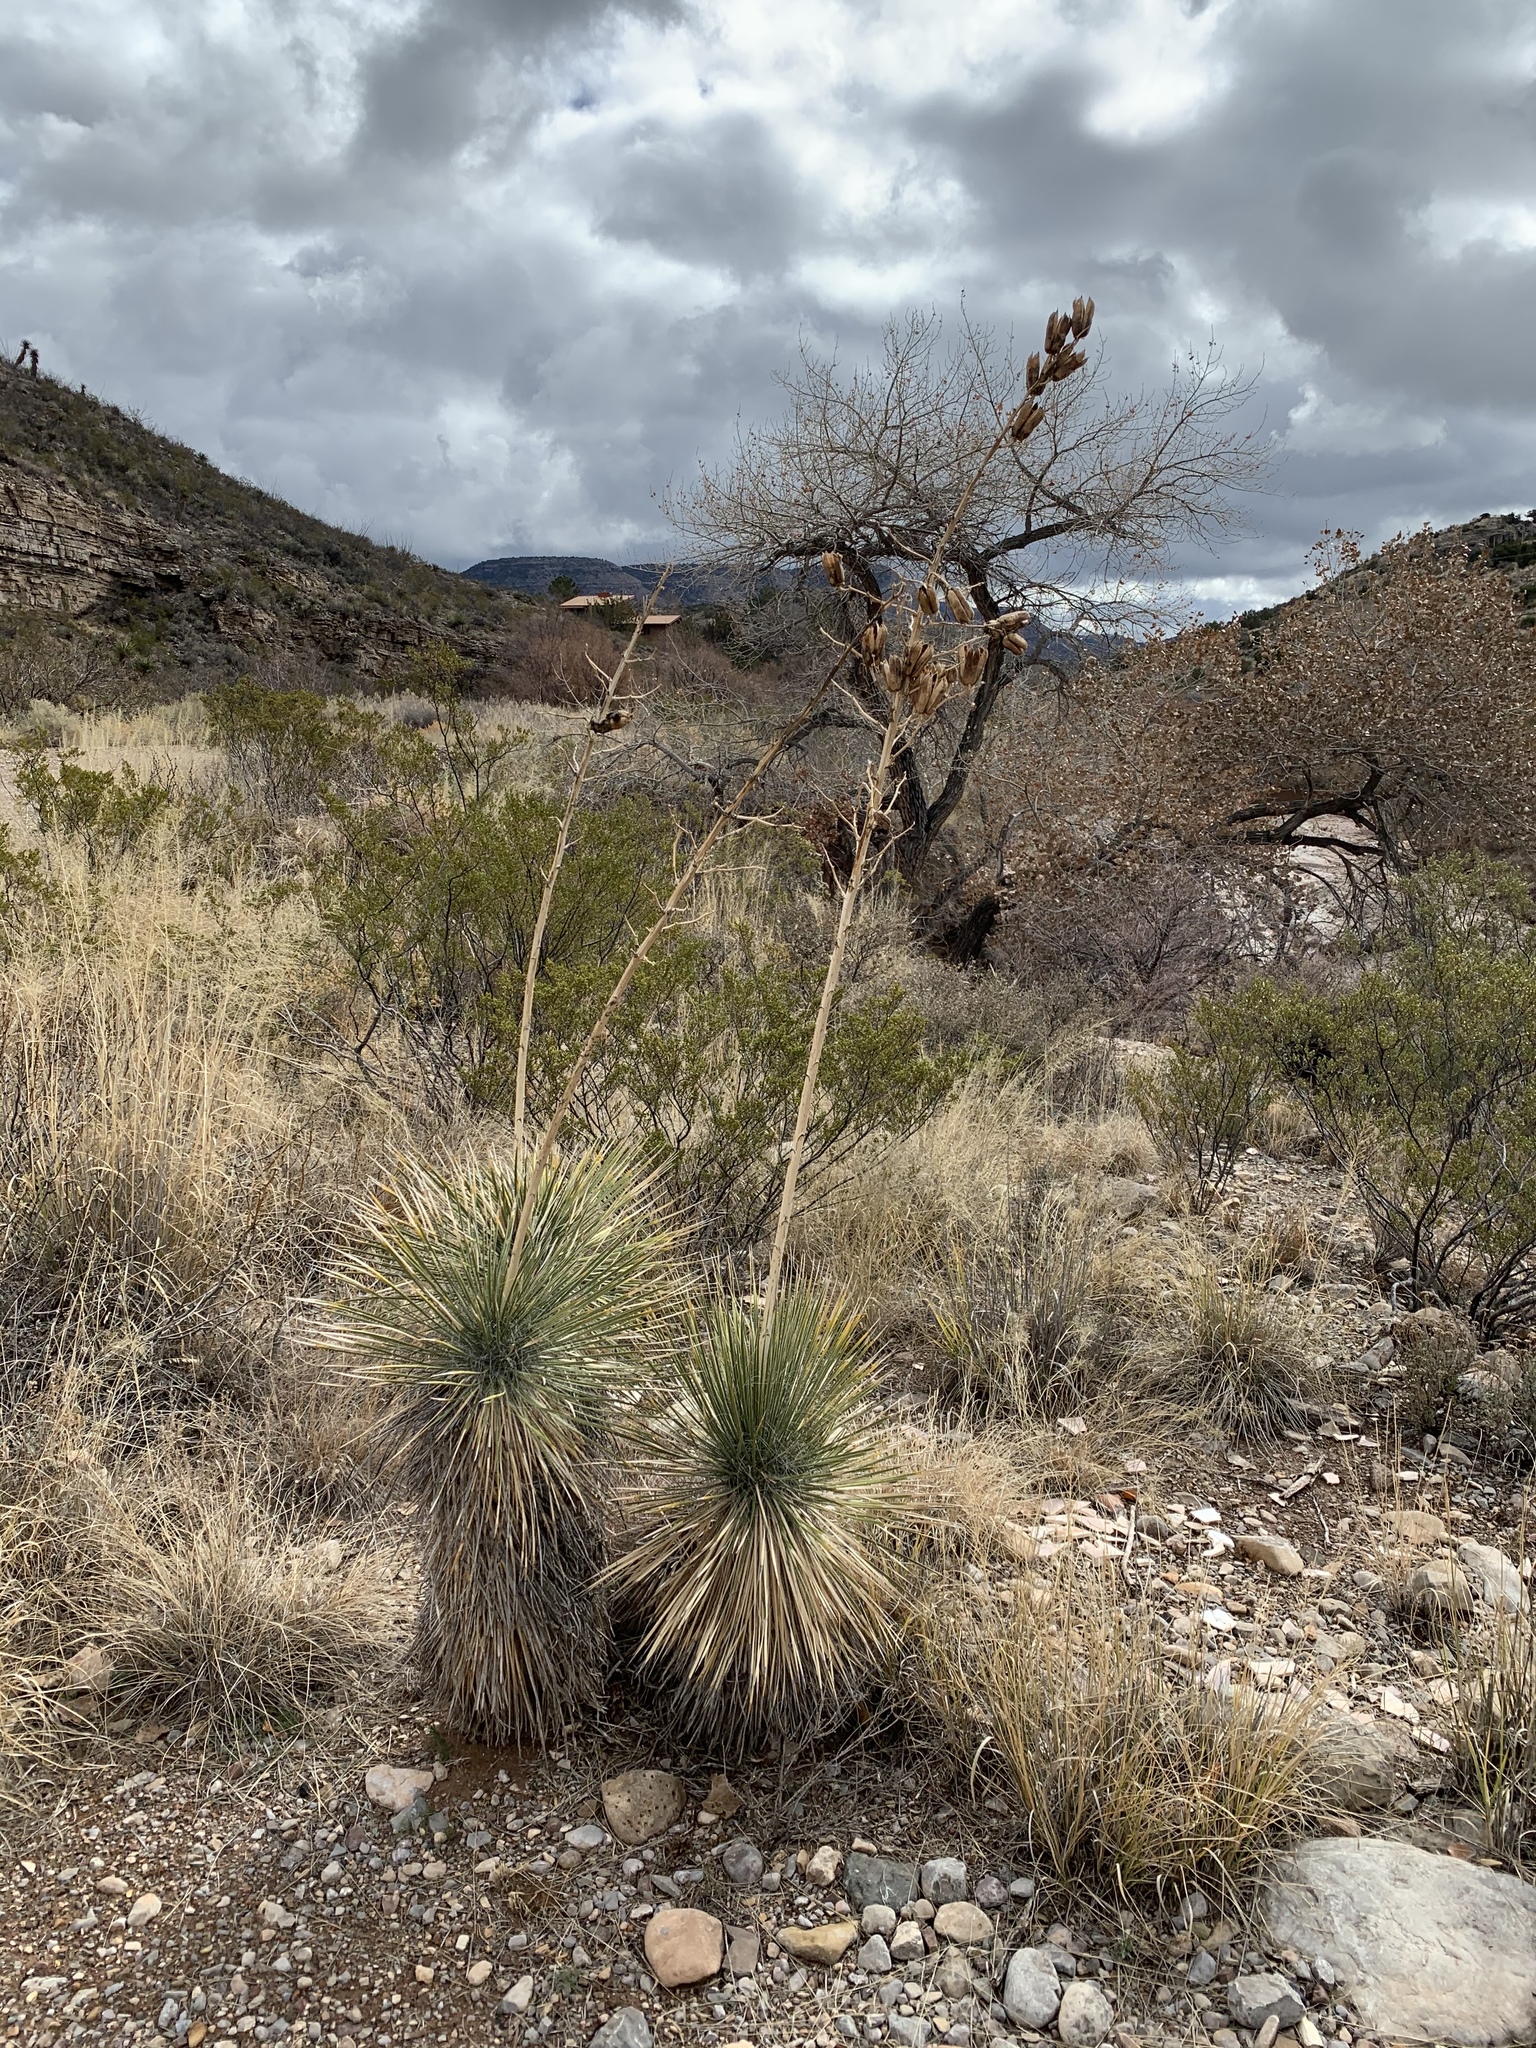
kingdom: Plantae
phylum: Tracheophyta
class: Liliopsida
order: Asparagales
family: Asparagaceae
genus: Yucca
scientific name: Yucca elata
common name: Palmella
